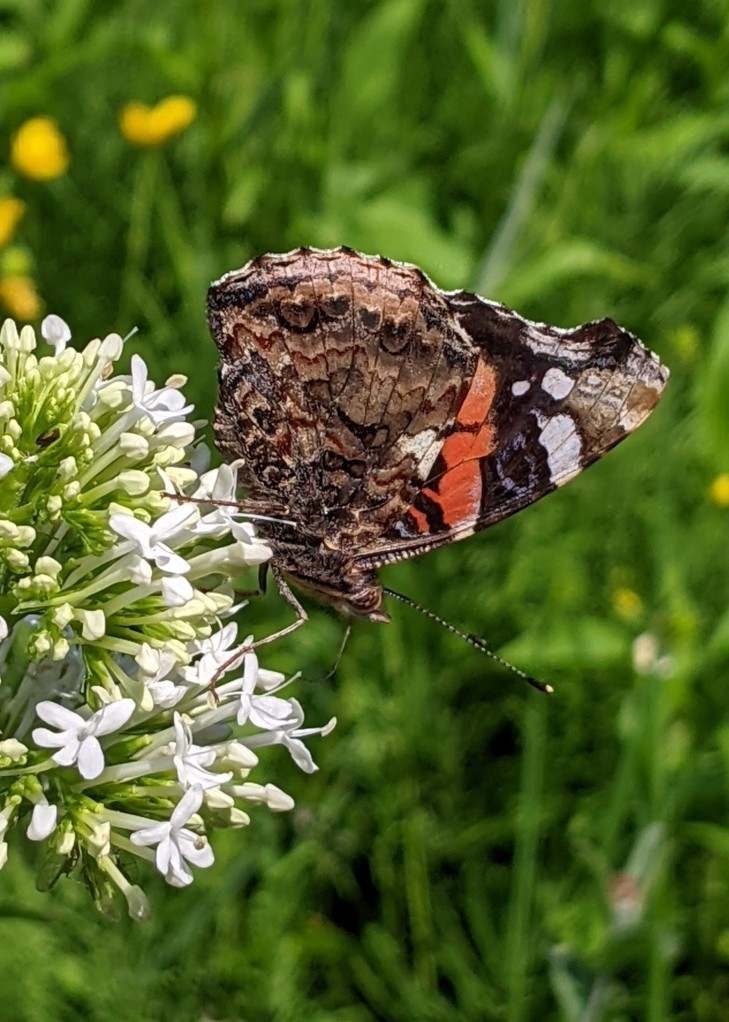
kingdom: Animalia
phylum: Arthropoda
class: Insecta
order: Lepidoptera
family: Nymphalidae
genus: Vanessa
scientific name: Vanessa atalanta
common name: Red admiral
